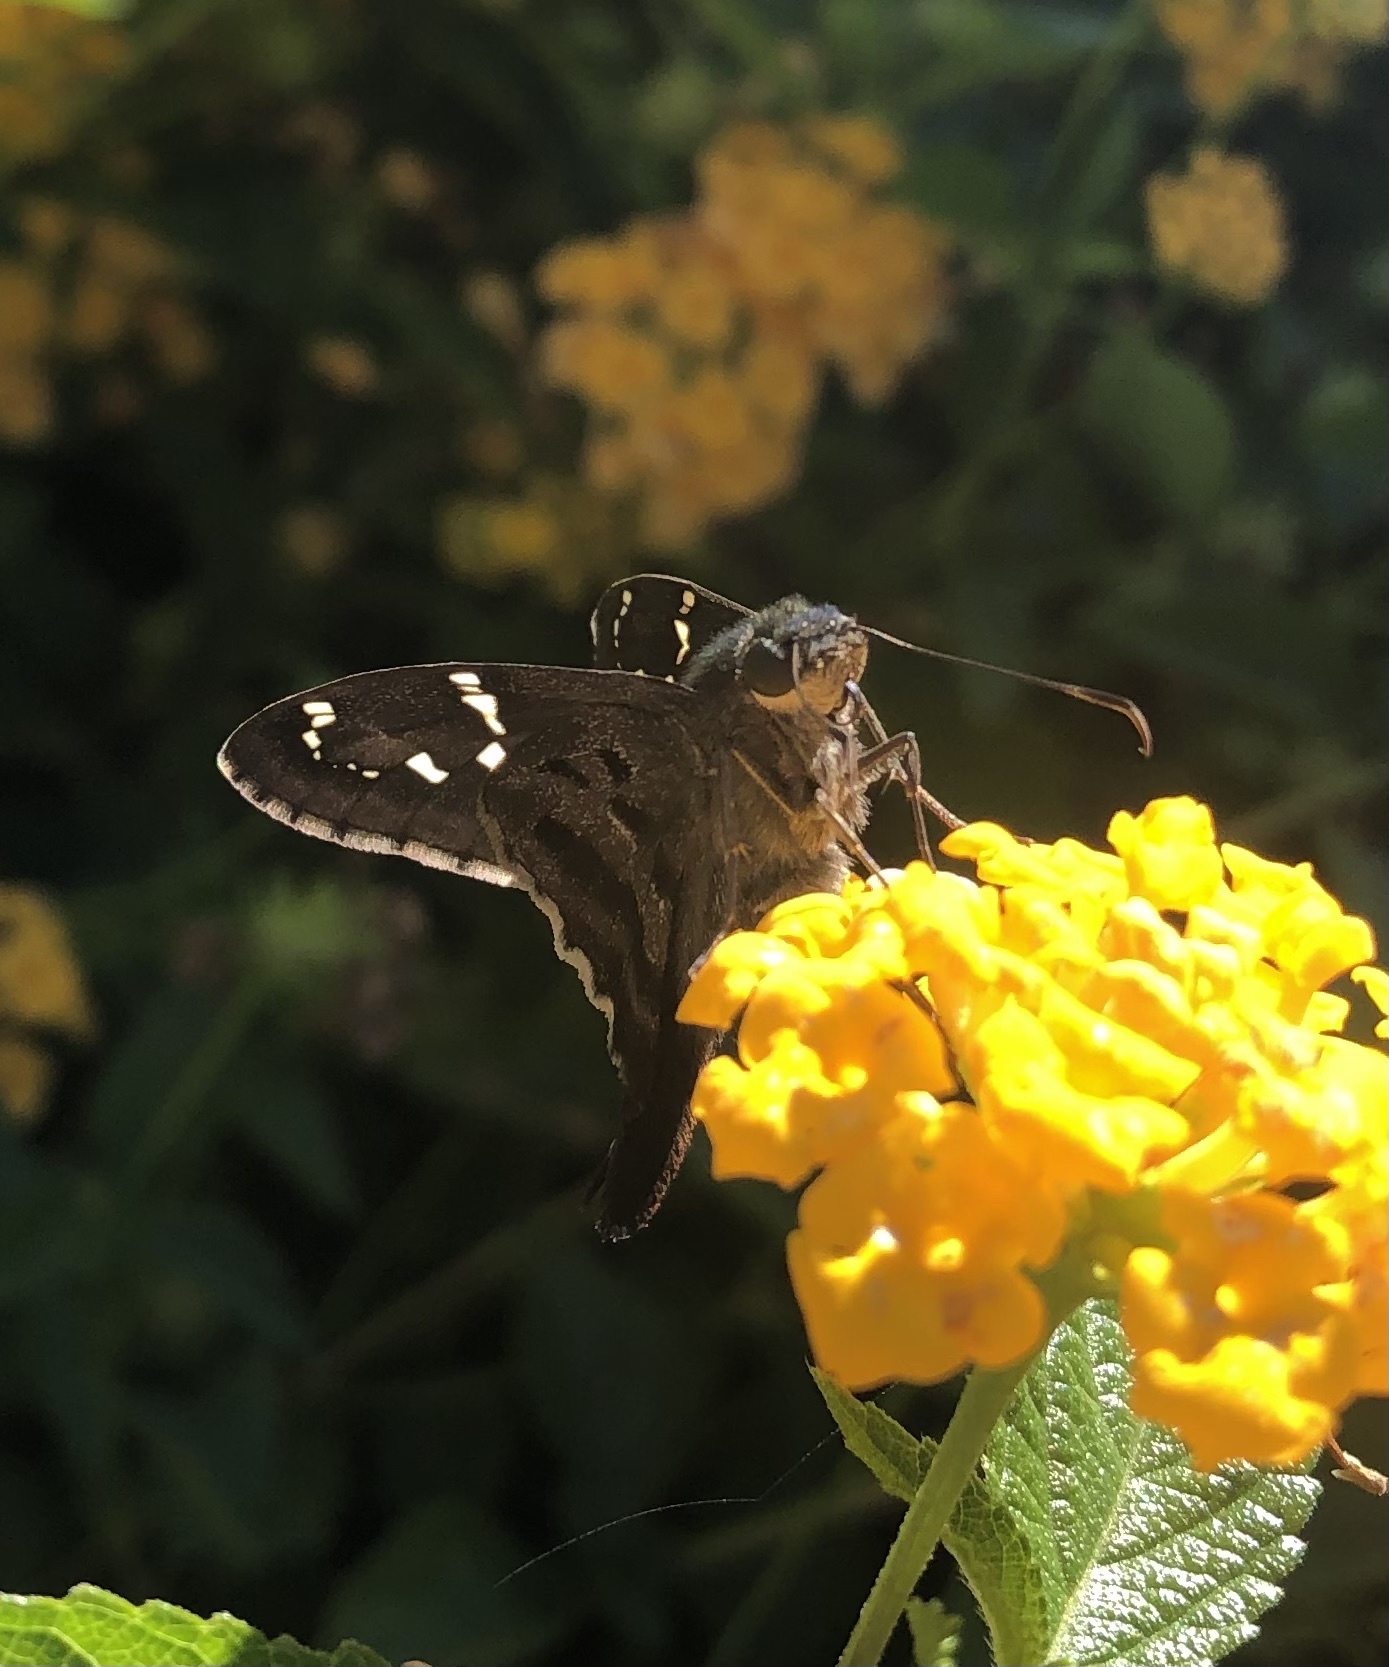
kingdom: Animalia
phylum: Arthropoda
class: Insecta
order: Lepidoptera
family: Hesperiidae
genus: Urbanus
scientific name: Urbanus proteus
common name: Long-tailed skipper
